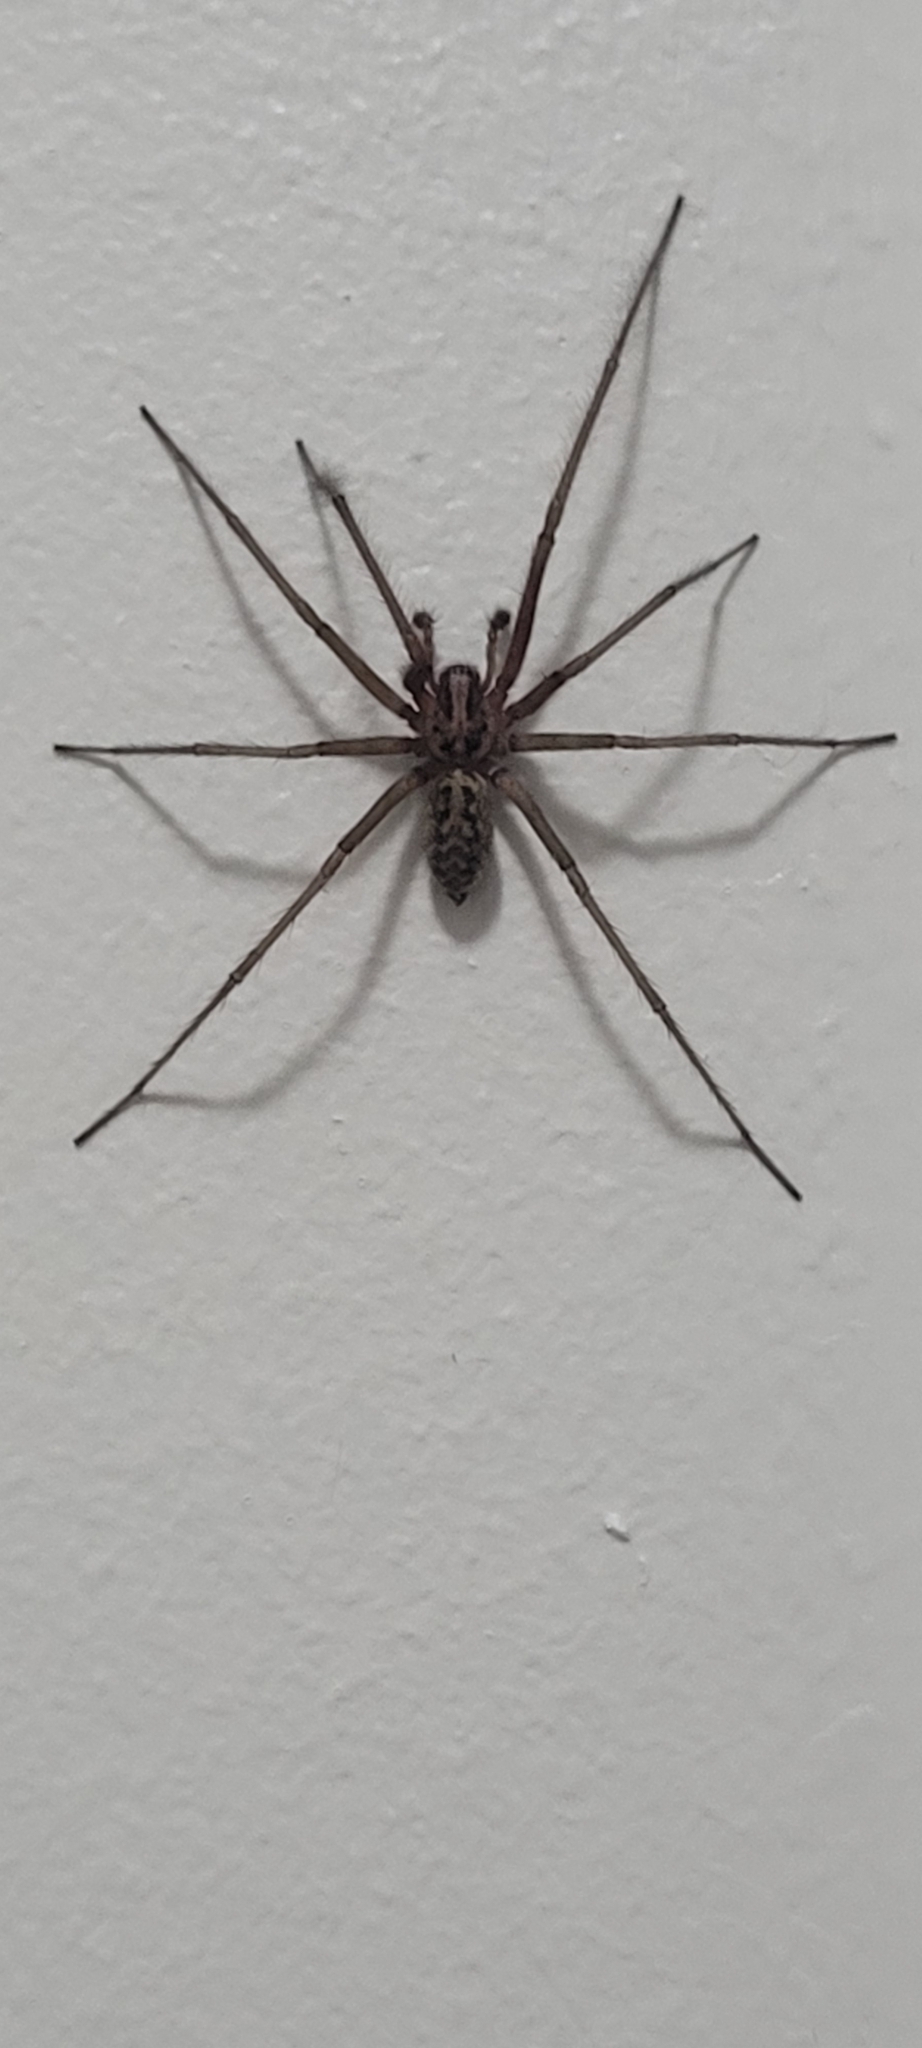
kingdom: Animalia
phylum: Arthropoda
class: Arachnida
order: Araneae
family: Agelenidae
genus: Eratigena
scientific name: Eratigena duellica
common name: Giant house spider
